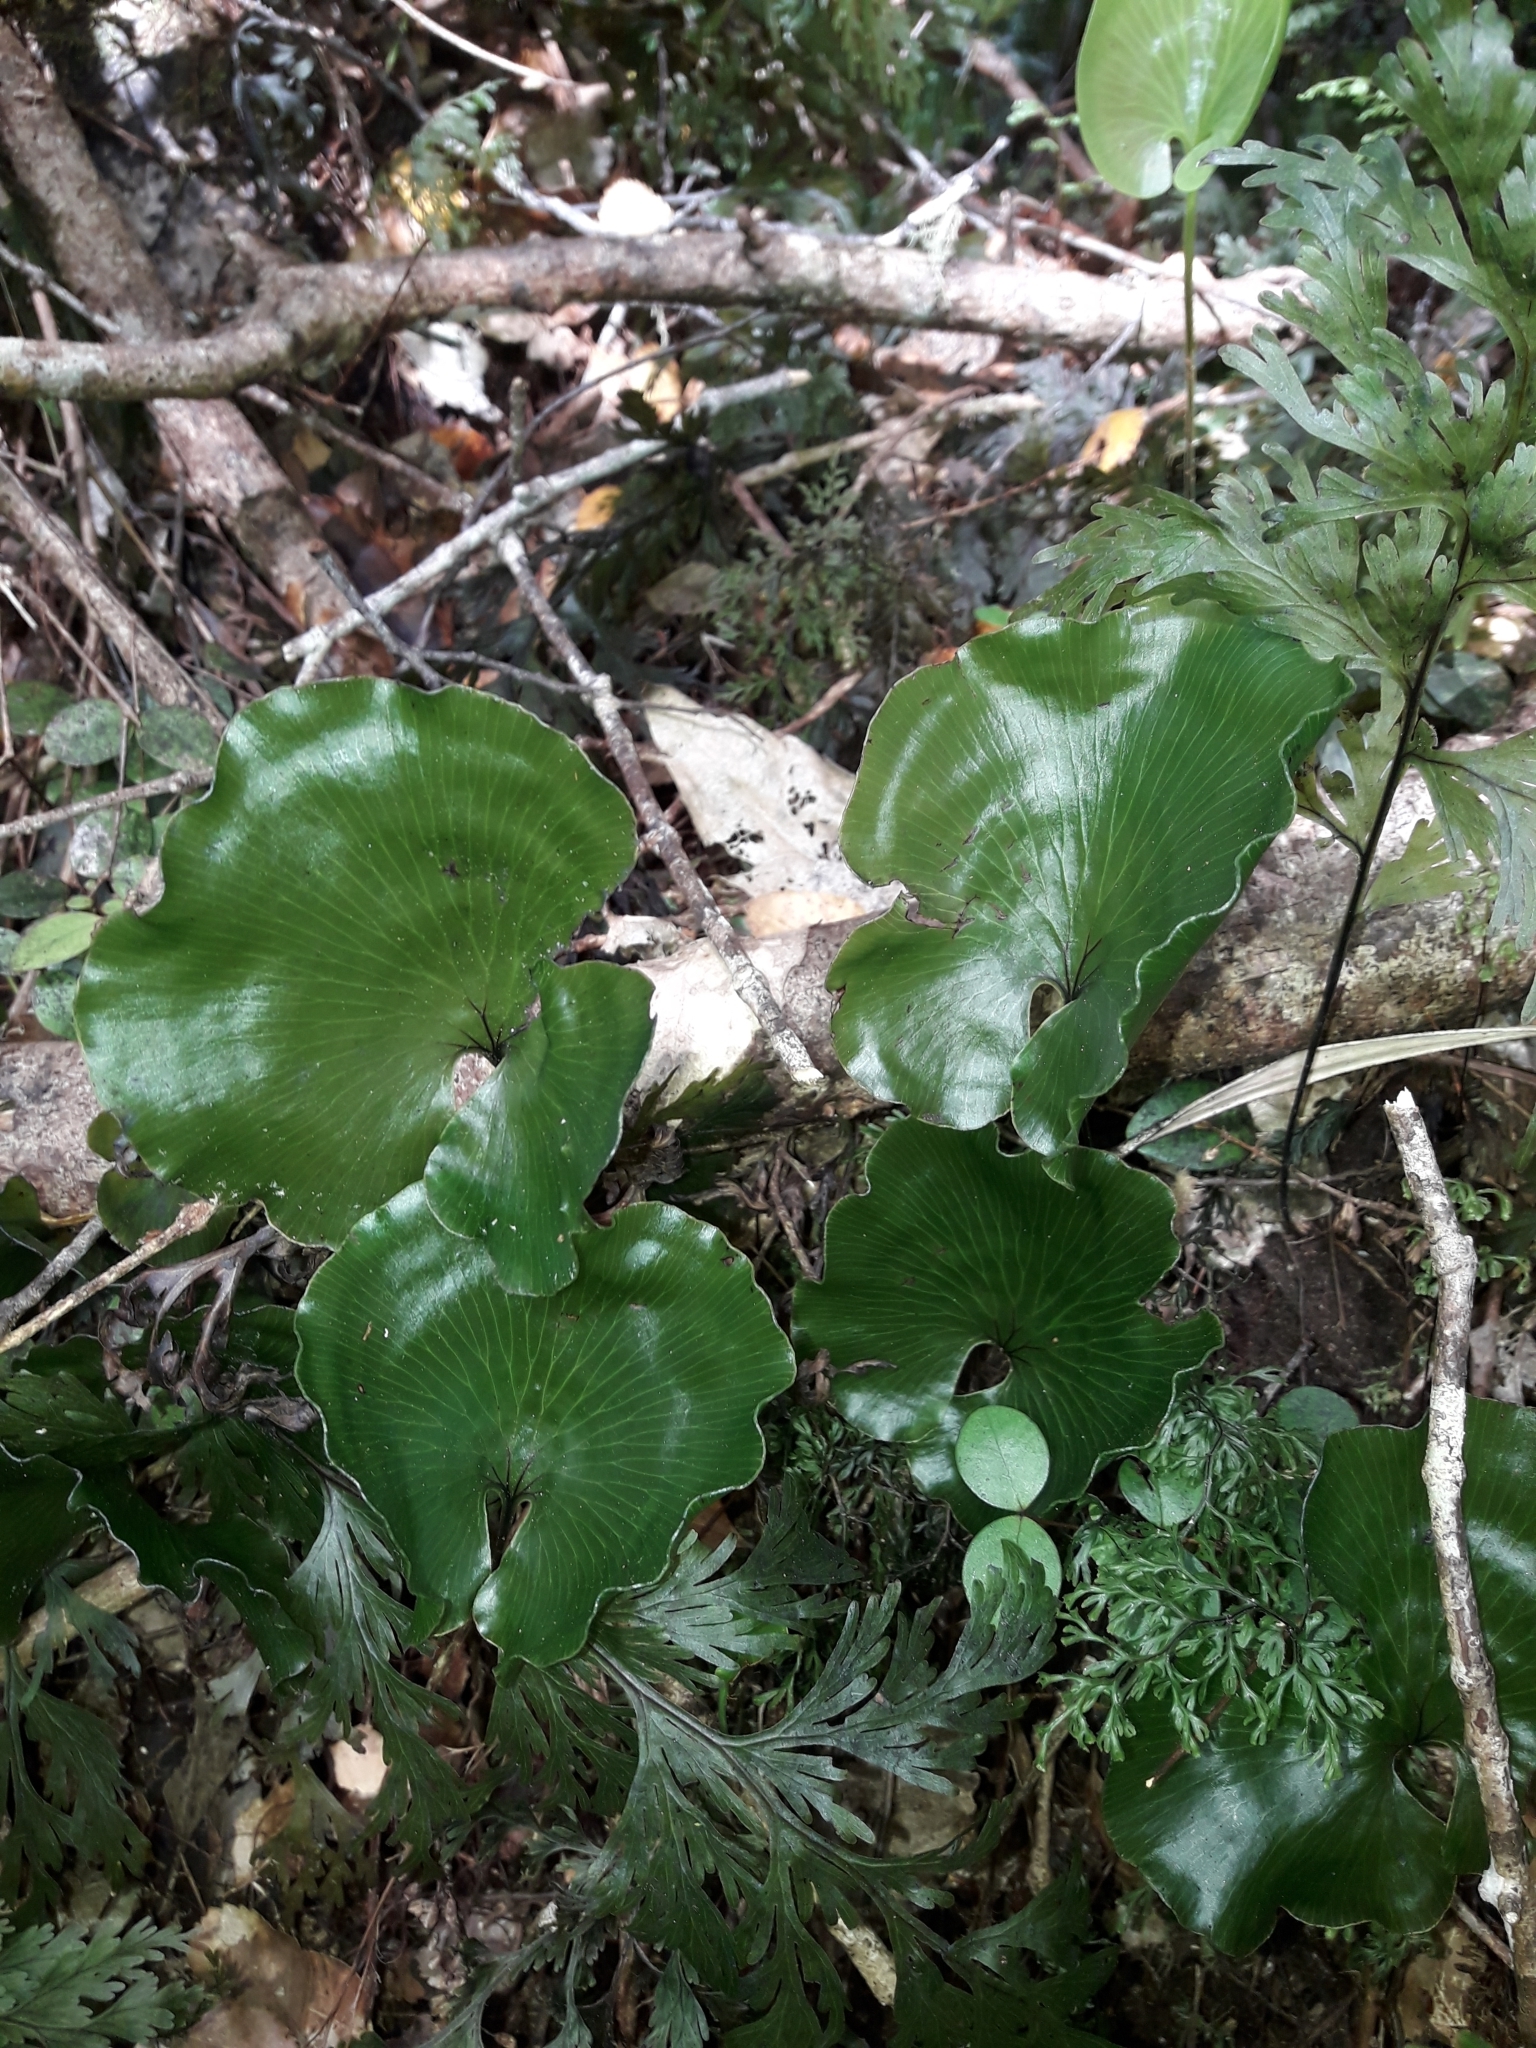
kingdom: Plantae
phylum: Tracheophyta
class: Polypodiopsida
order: Hymenophyllales
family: Hymenophyllaceae
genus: Hymenophyllum
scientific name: Hymenophyllum nephrophyllum
